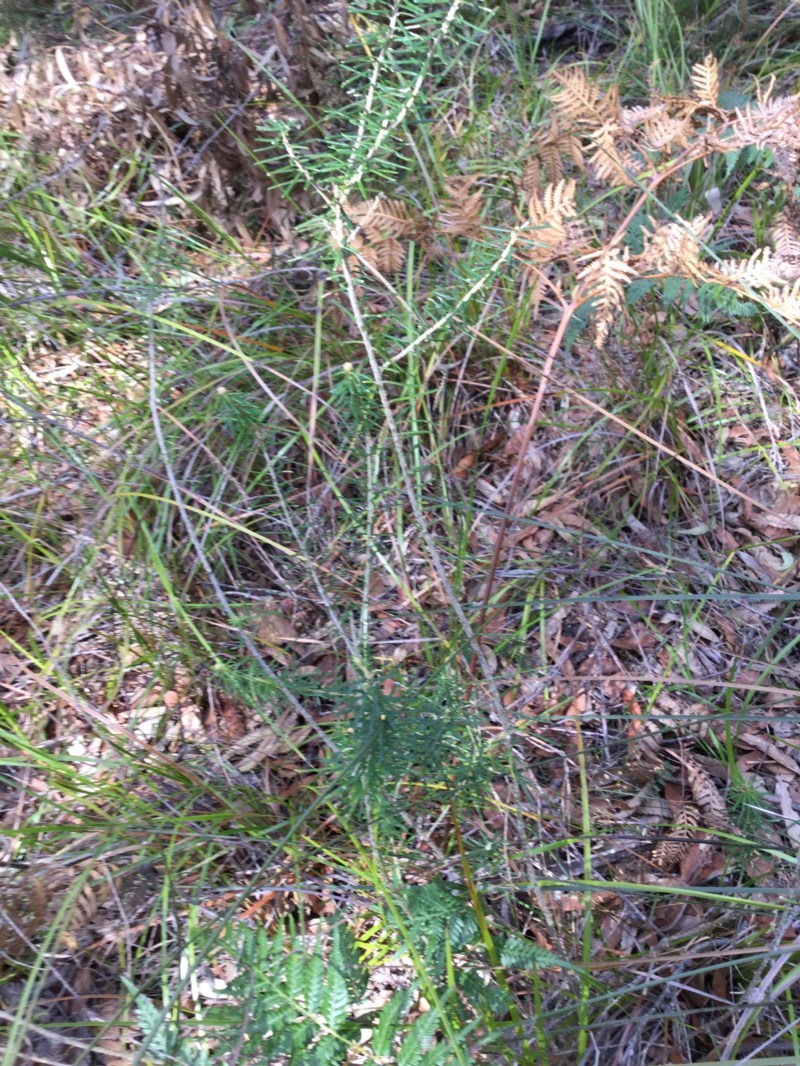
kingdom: Plantae
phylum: Tracheophyta
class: Magnoliopsida
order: Apiales
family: Araliaceae
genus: Astrotricha
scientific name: Astrotricha
